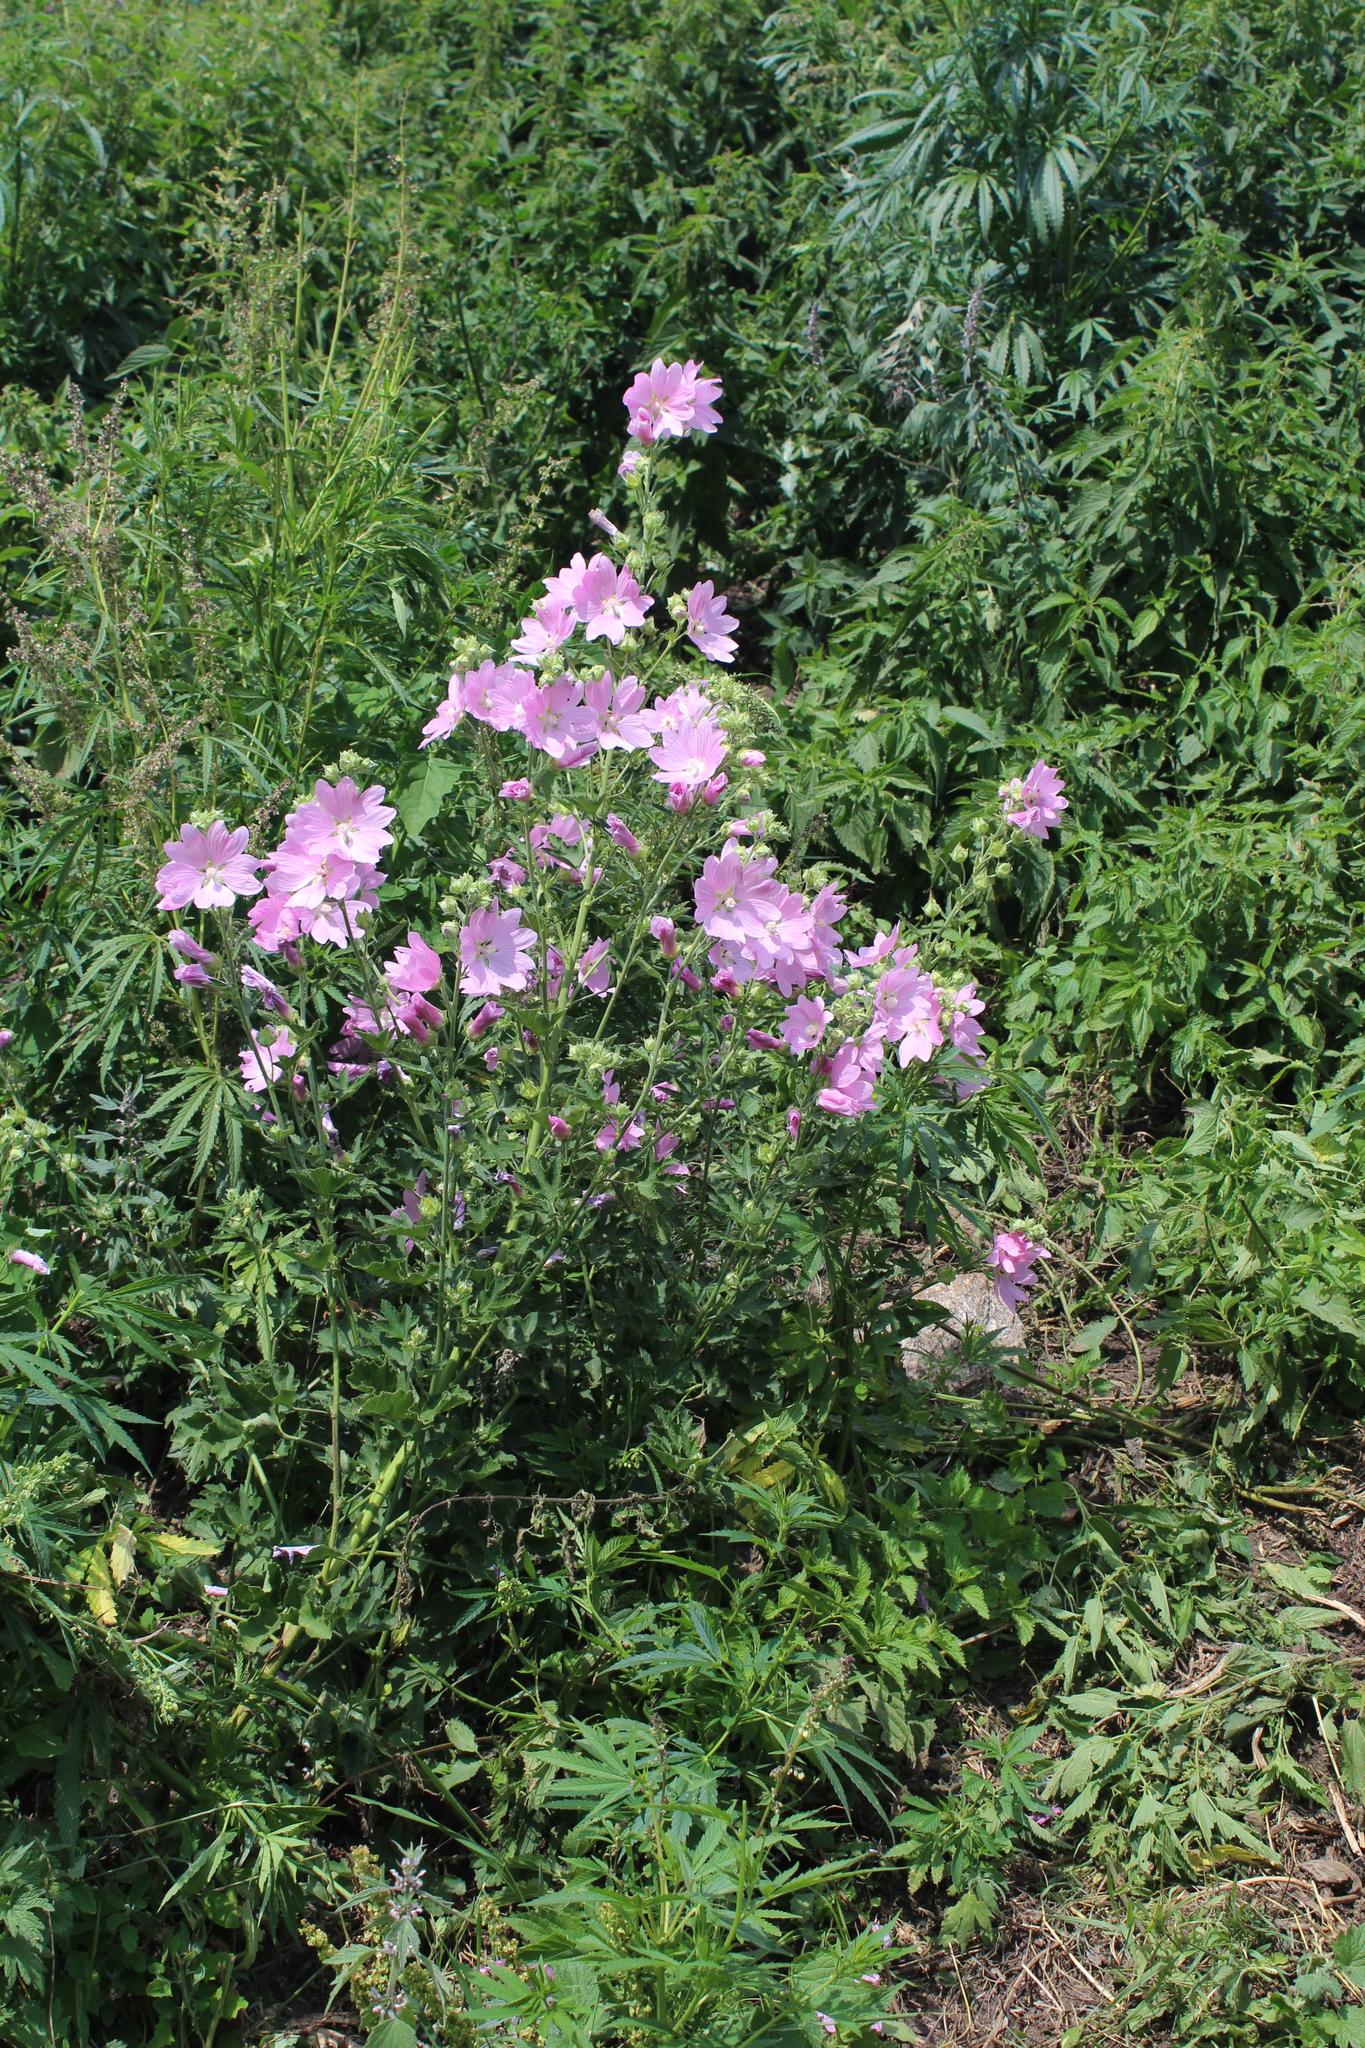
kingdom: Plantae
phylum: Tracheophyta
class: Magnoliopsida
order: Malvales
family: Malvaceae
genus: Malva
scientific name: Malva thuringiaca
